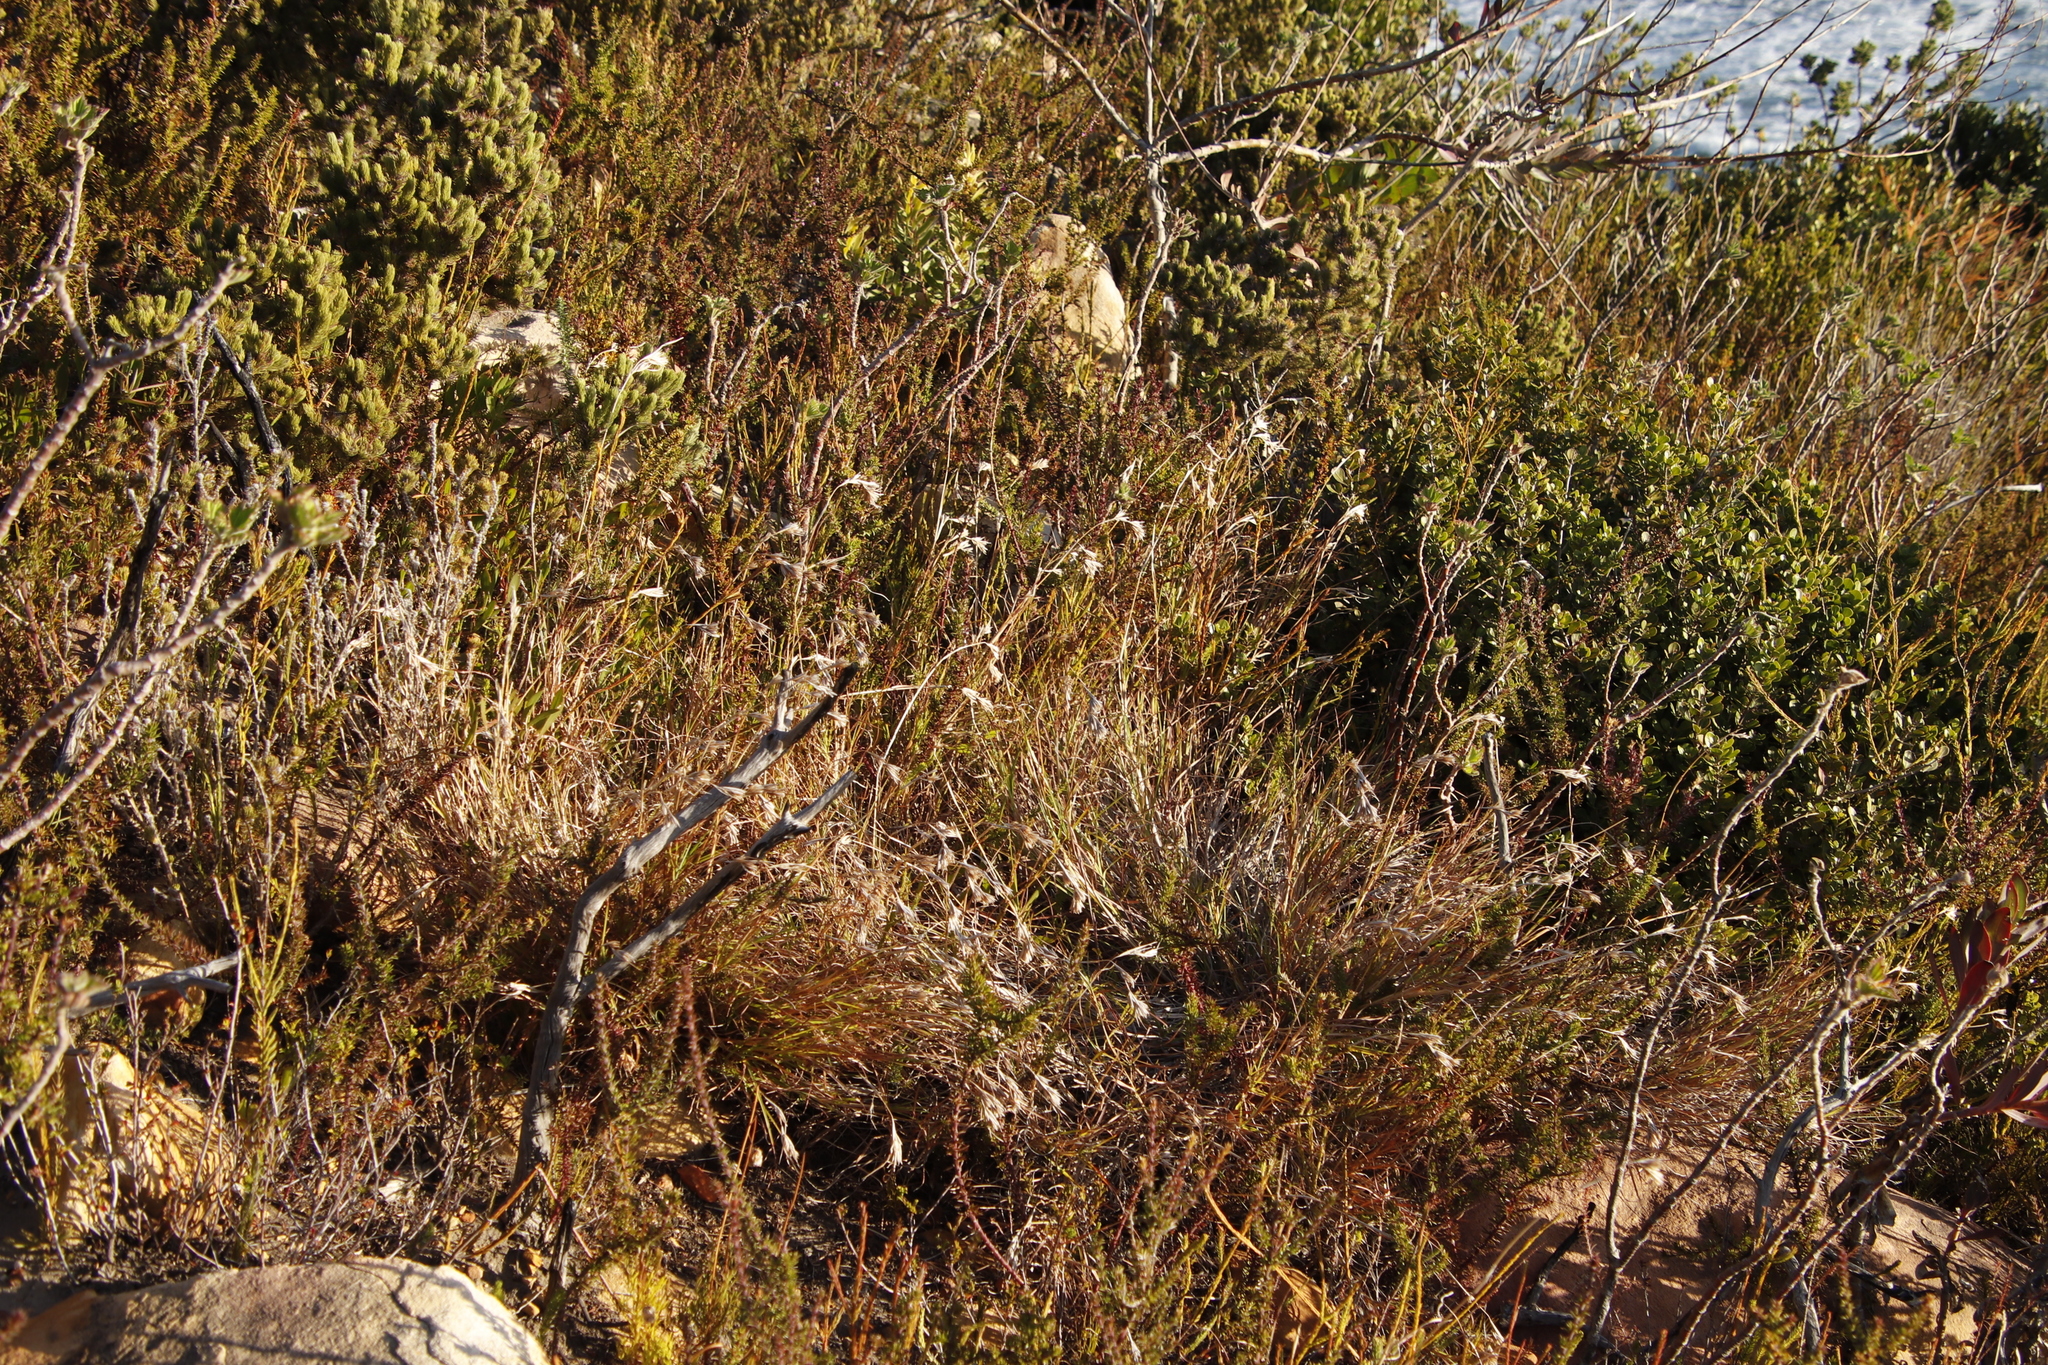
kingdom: Plantae
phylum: Tracheophyta
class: Liliopsida
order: Poales
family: Poaceae
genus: Themeda
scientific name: Themeda triandra
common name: Kangaroo grass
